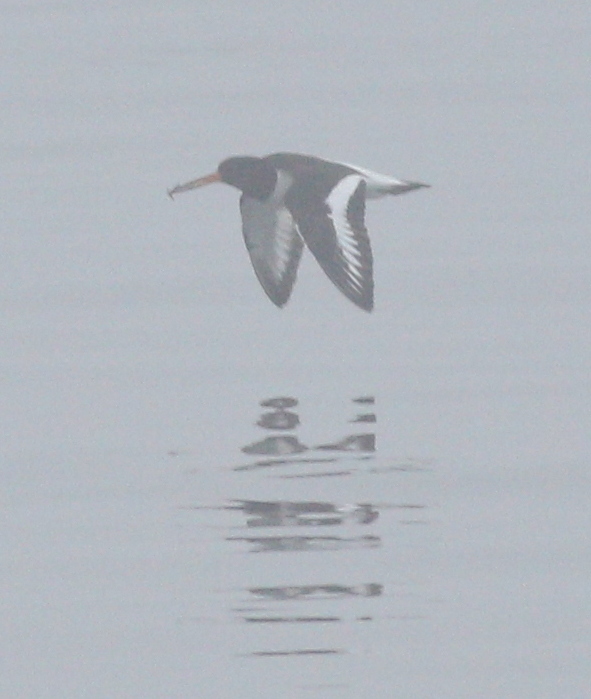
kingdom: Animalia
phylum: Chordata
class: Aves
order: Charadriiformes
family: Haematopodidae
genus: Haematopus
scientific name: Haematopus ostralegus
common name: Eurasian oystercatcher
